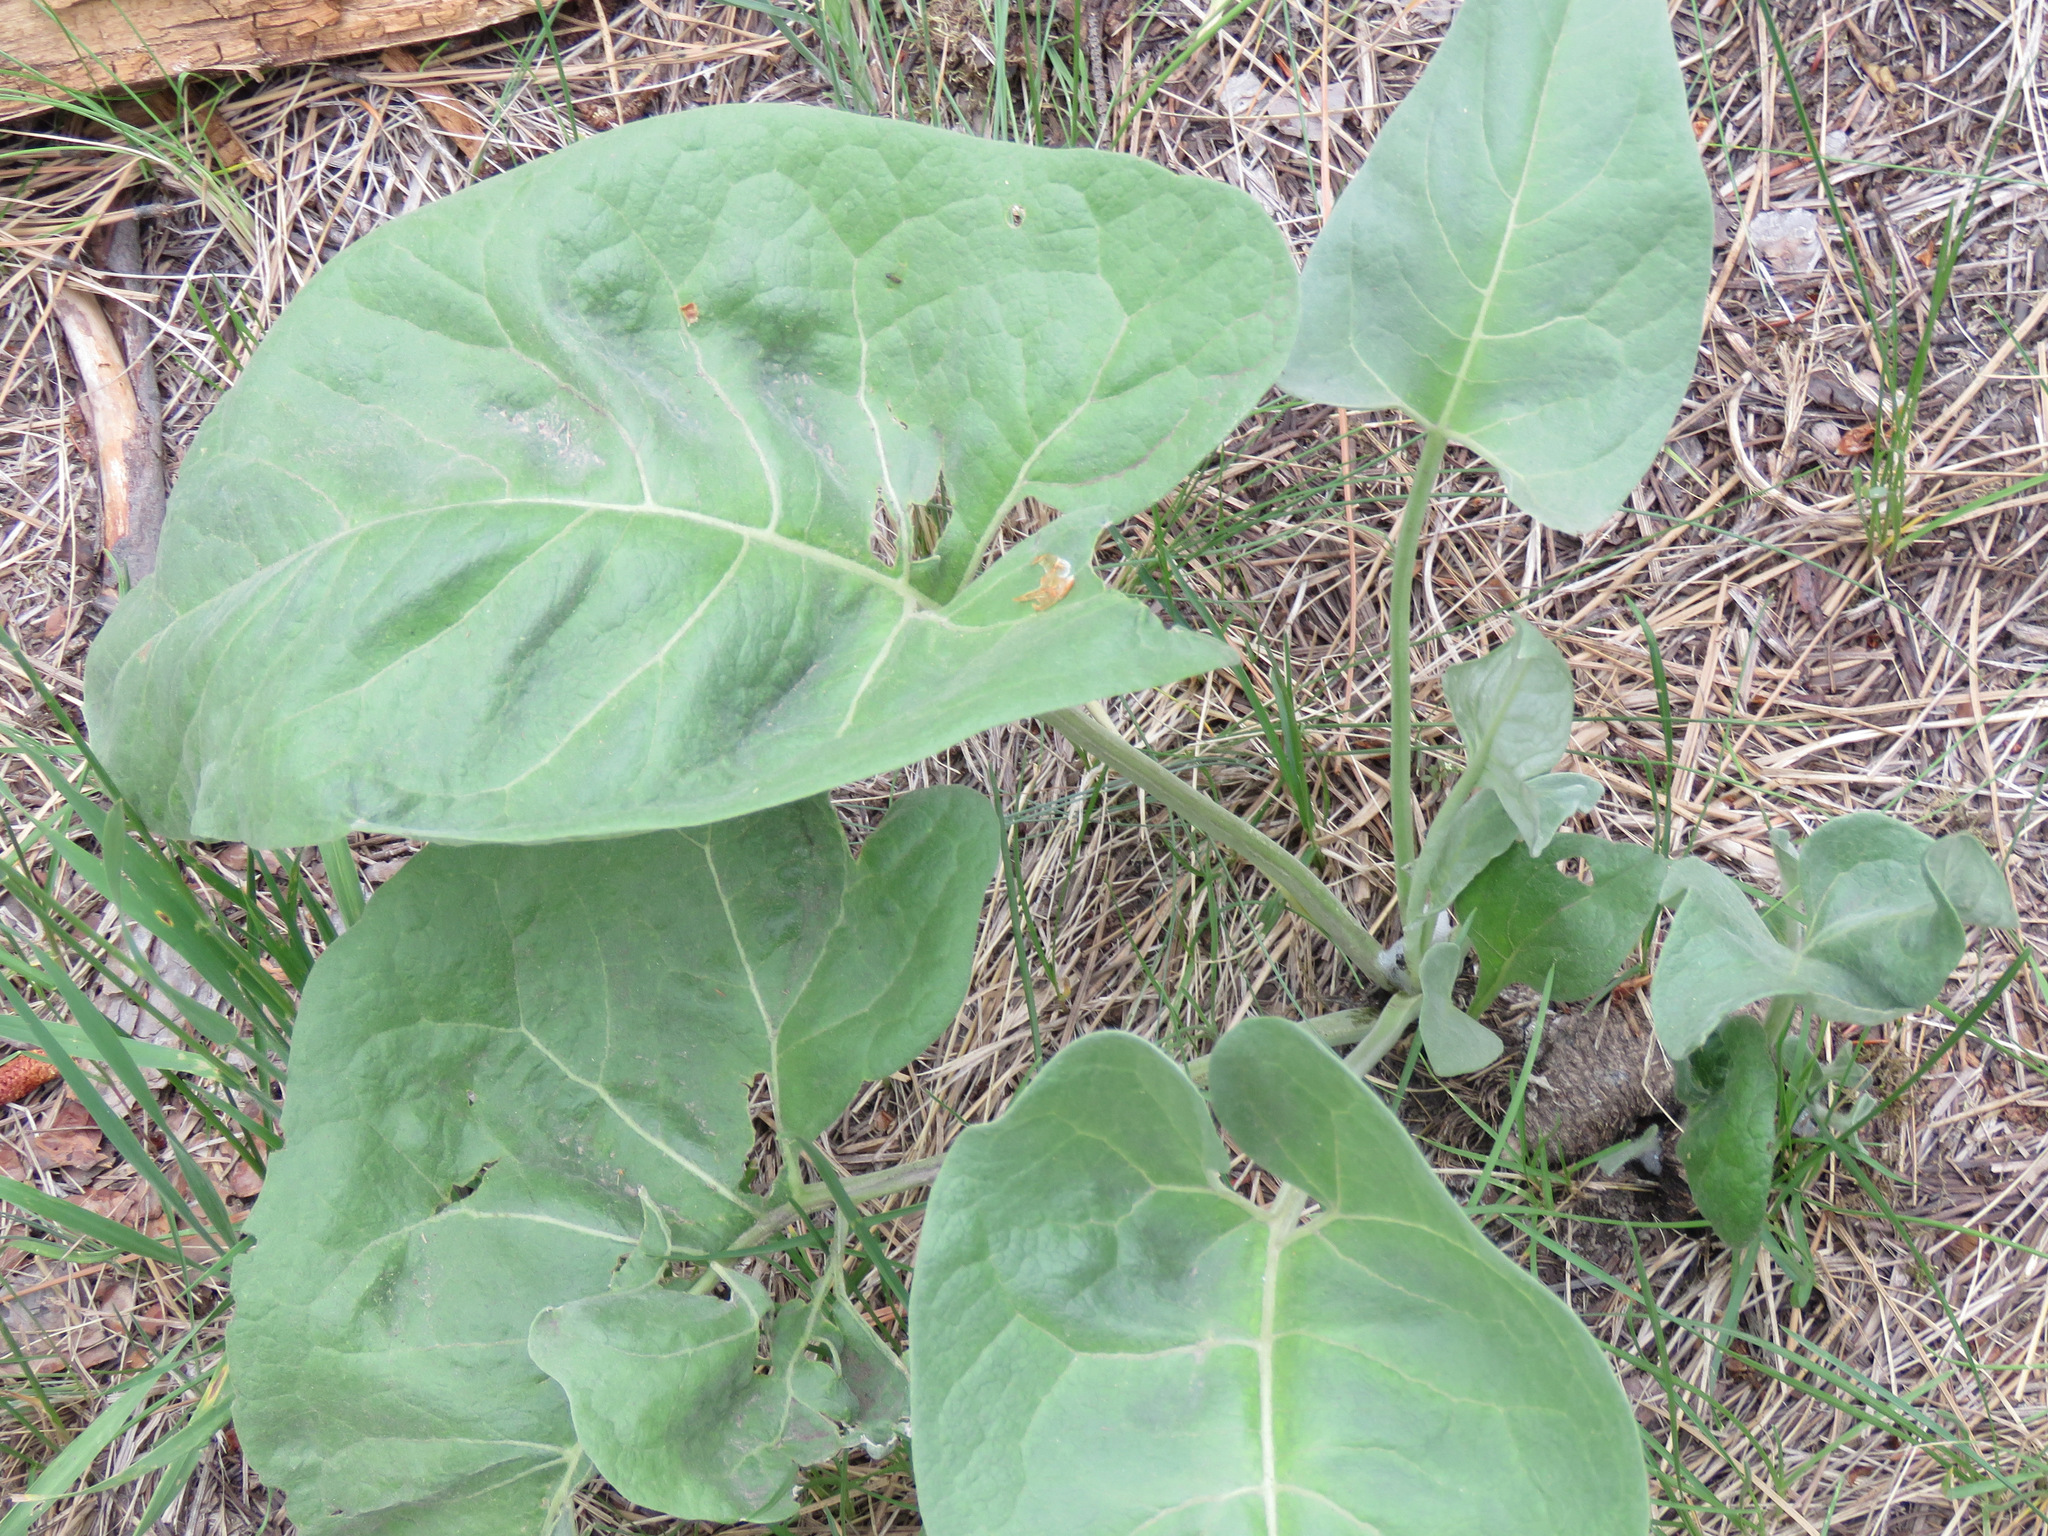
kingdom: Plantae
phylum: Tracheophyta
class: Magnoliopsida
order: Asterales
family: Asteraceae
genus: Wyethia
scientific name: Wyethia sagittata
